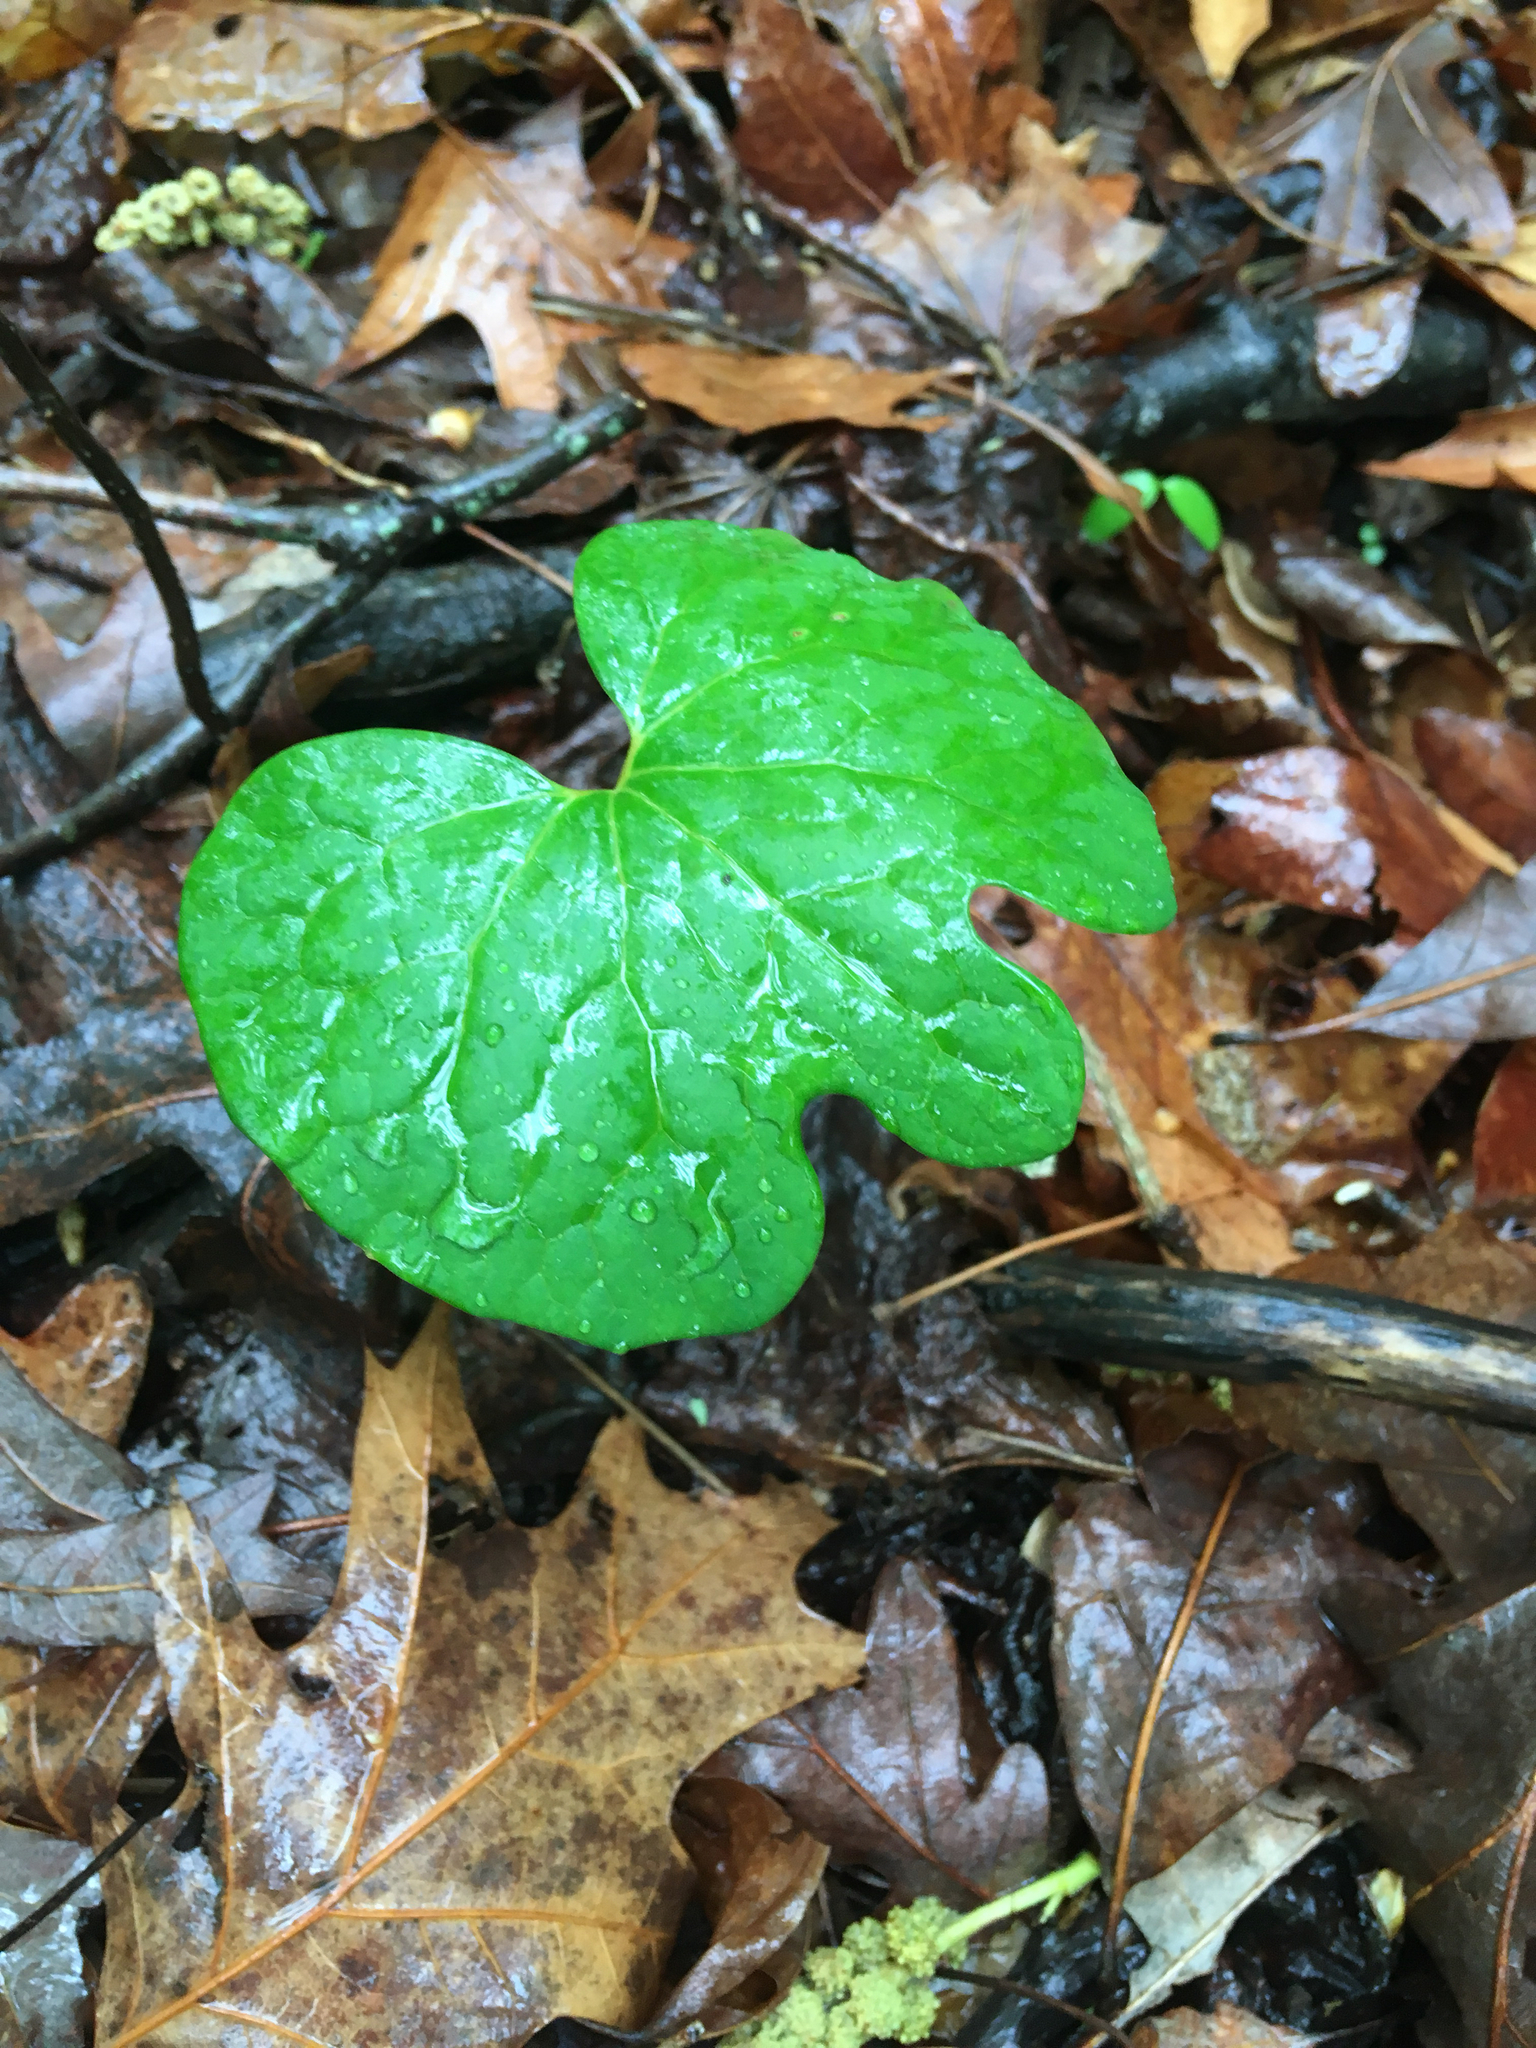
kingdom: Plantae
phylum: Tracheophyta
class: Magnoliopsida
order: Ranunculales
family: Papaveraceae
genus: Sanguinaria
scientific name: Sanguinaria canadensis
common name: Bloodroot
